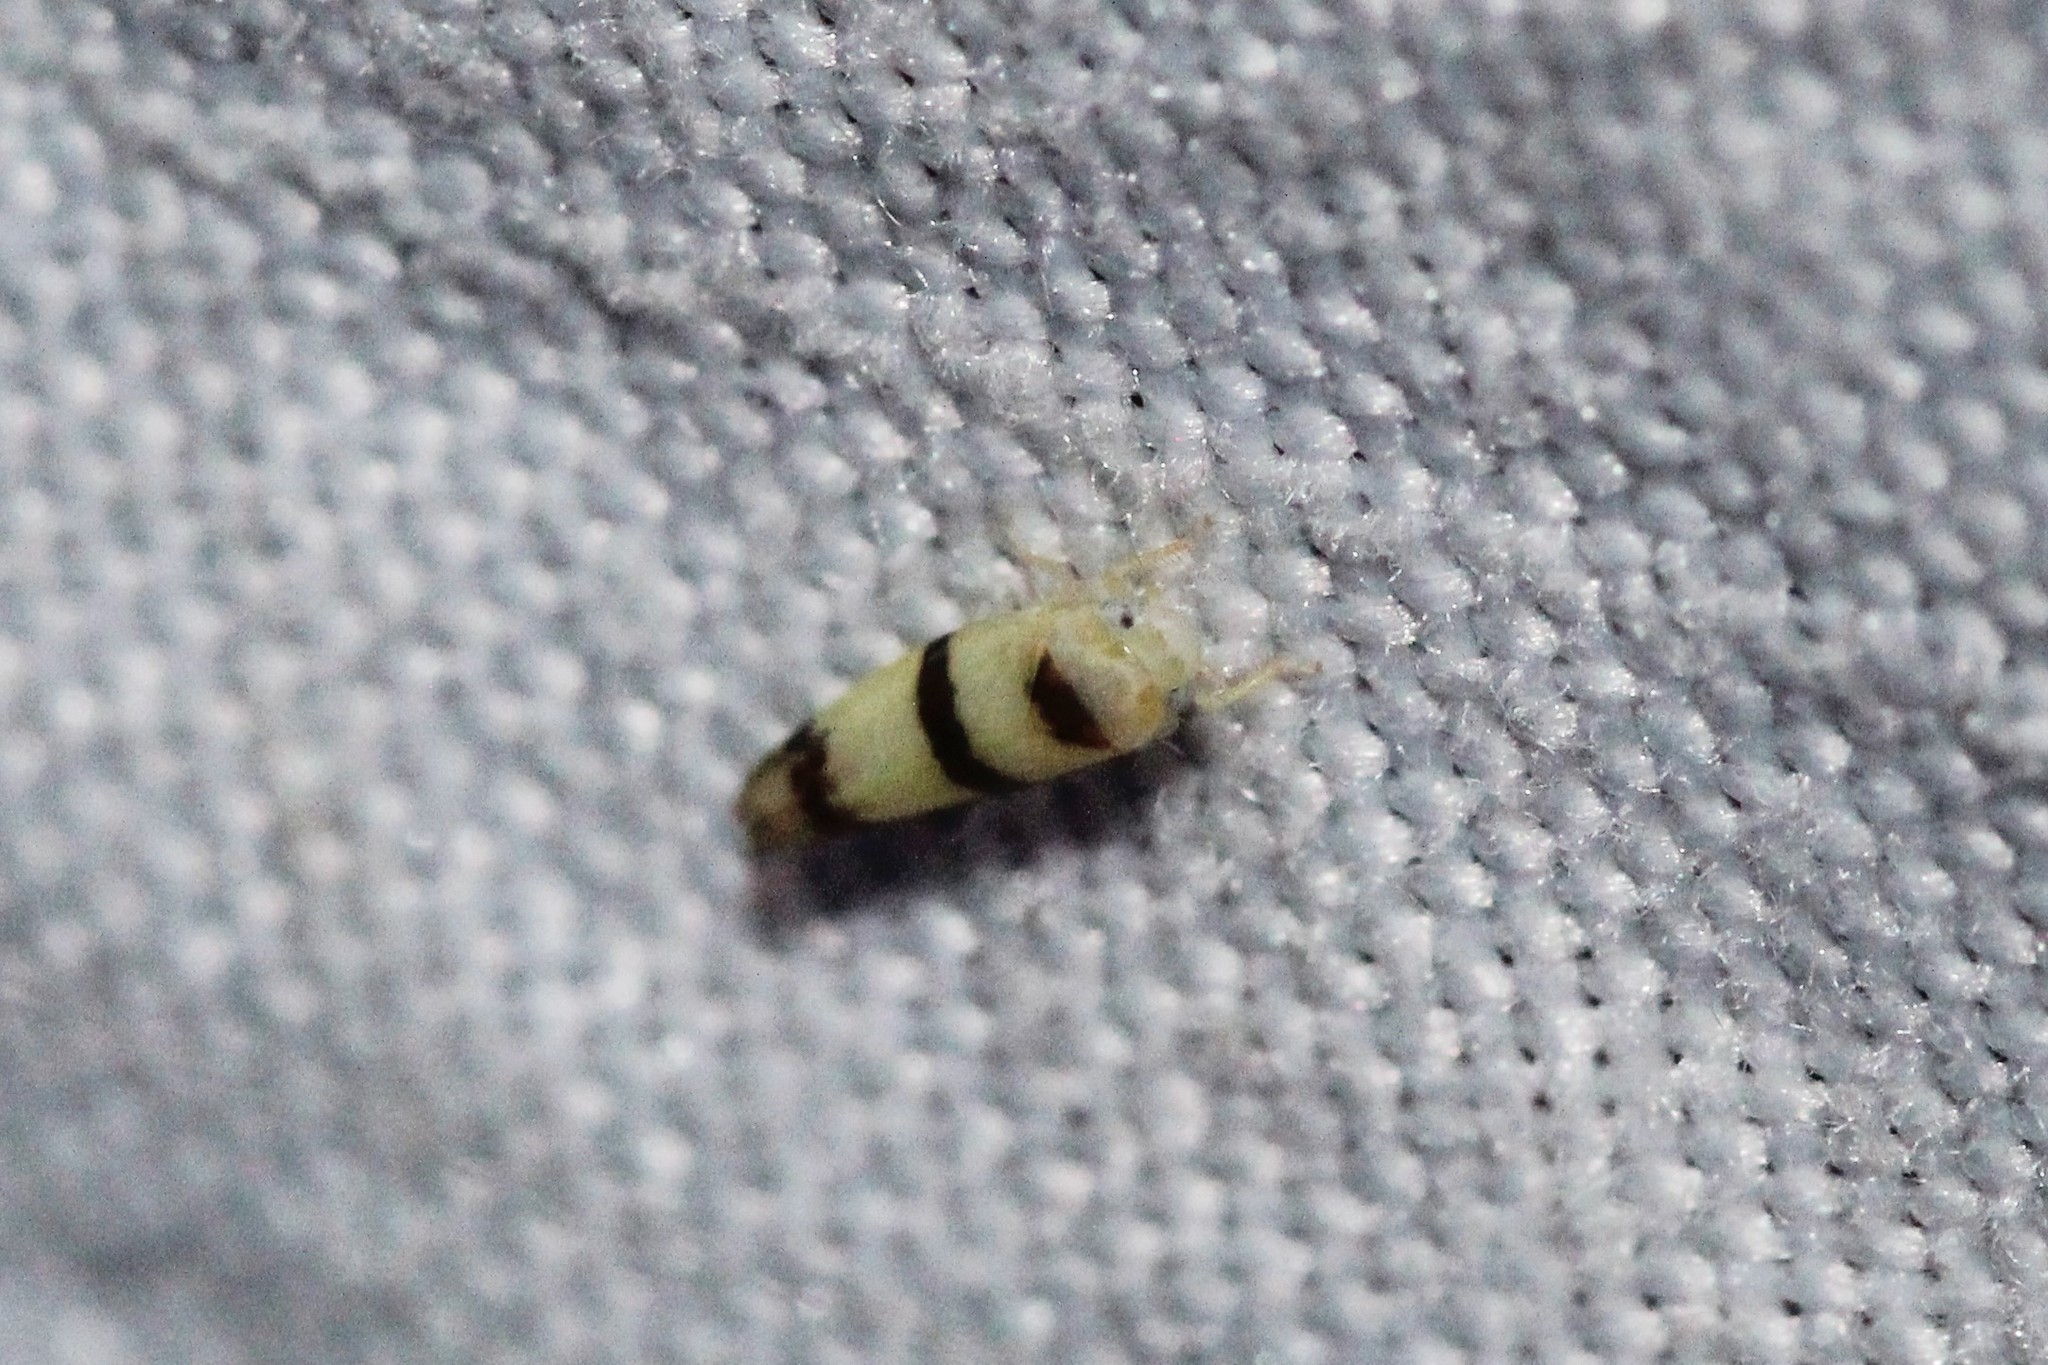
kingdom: Animalia
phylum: Arthropoda
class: Insecta
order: Hemiptera
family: Cicadellidae
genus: Empoa
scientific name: Empoa gillettei
